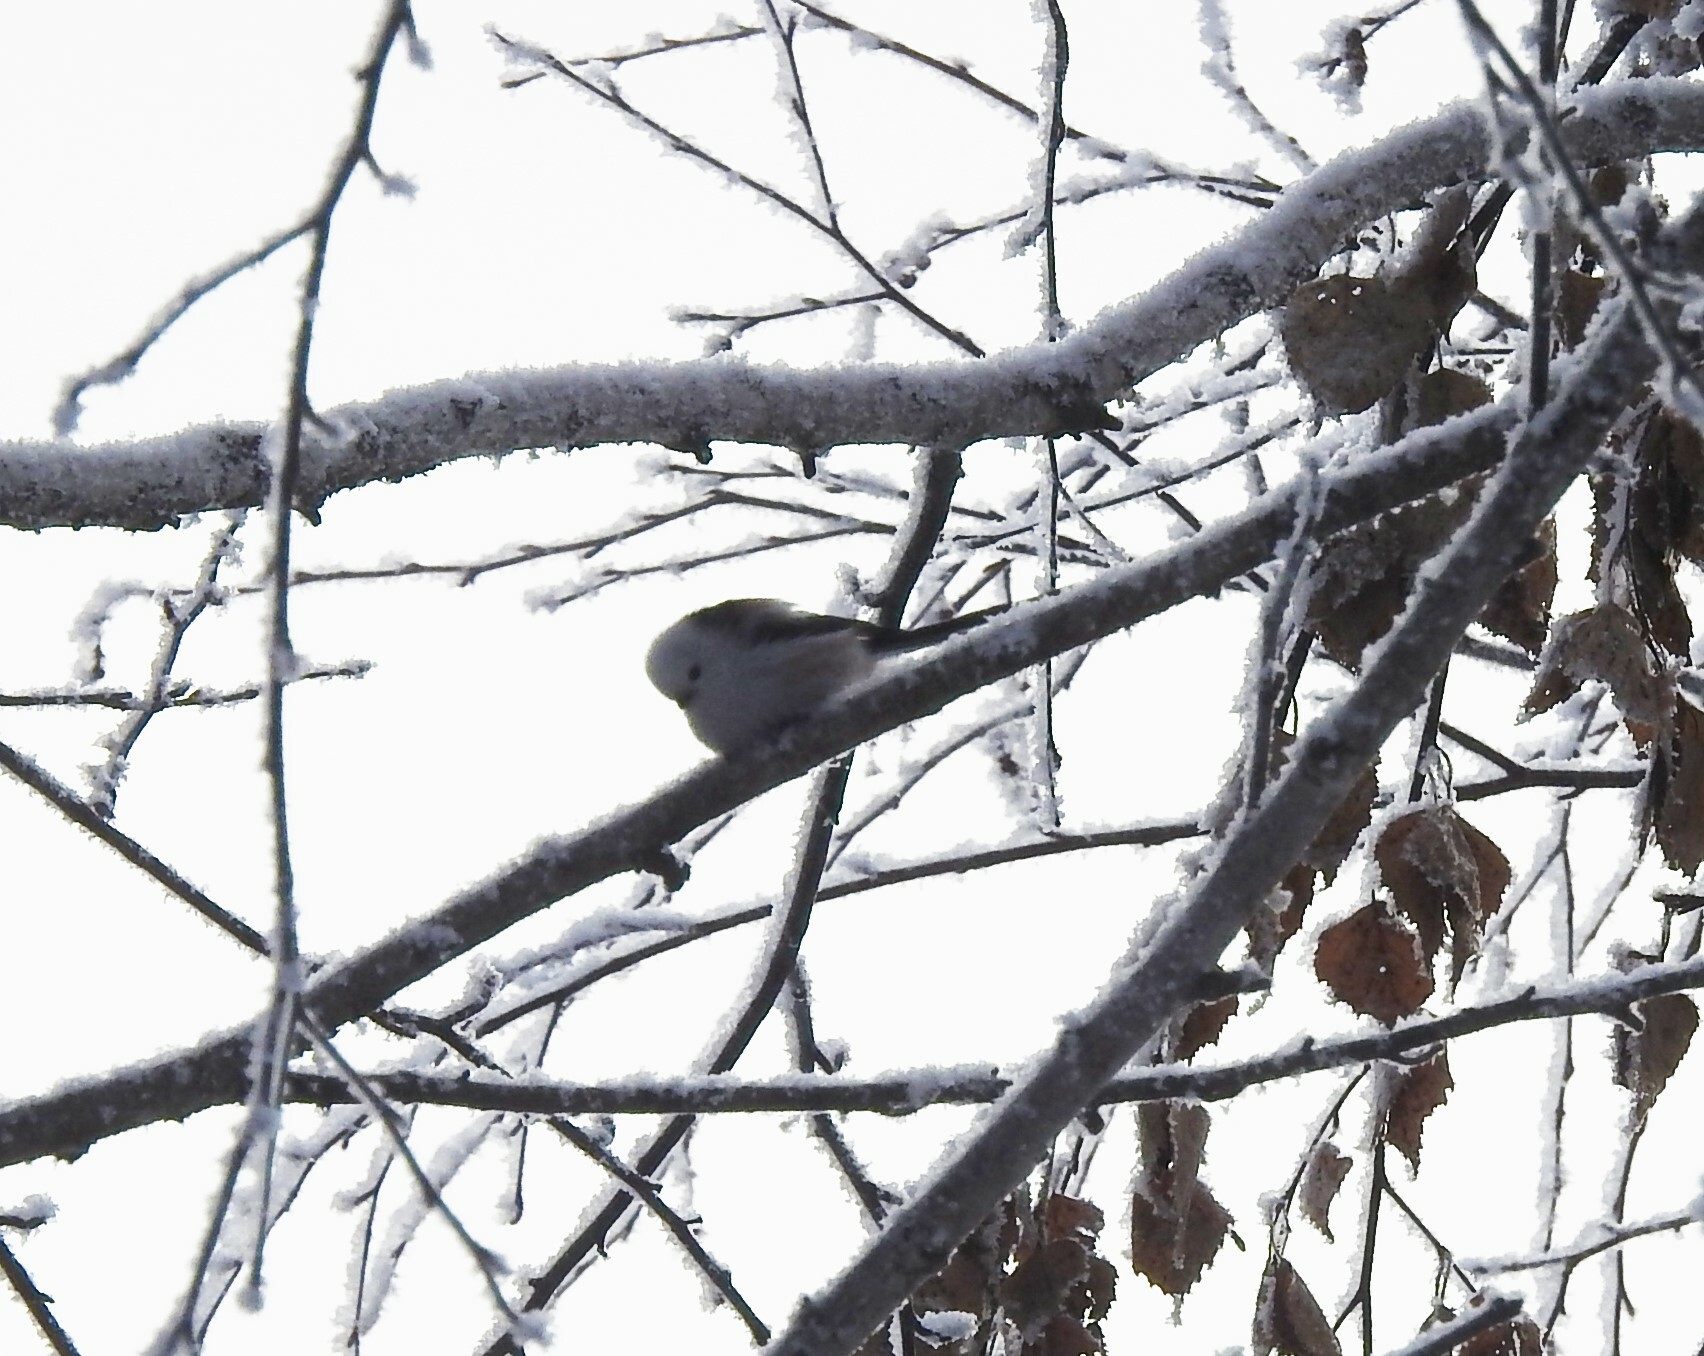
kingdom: Animalia
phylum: Chordata
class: Aves
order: Passeriformes
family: Aegithalidae
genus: Aegithalos
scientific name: Aegithalos caudatus
